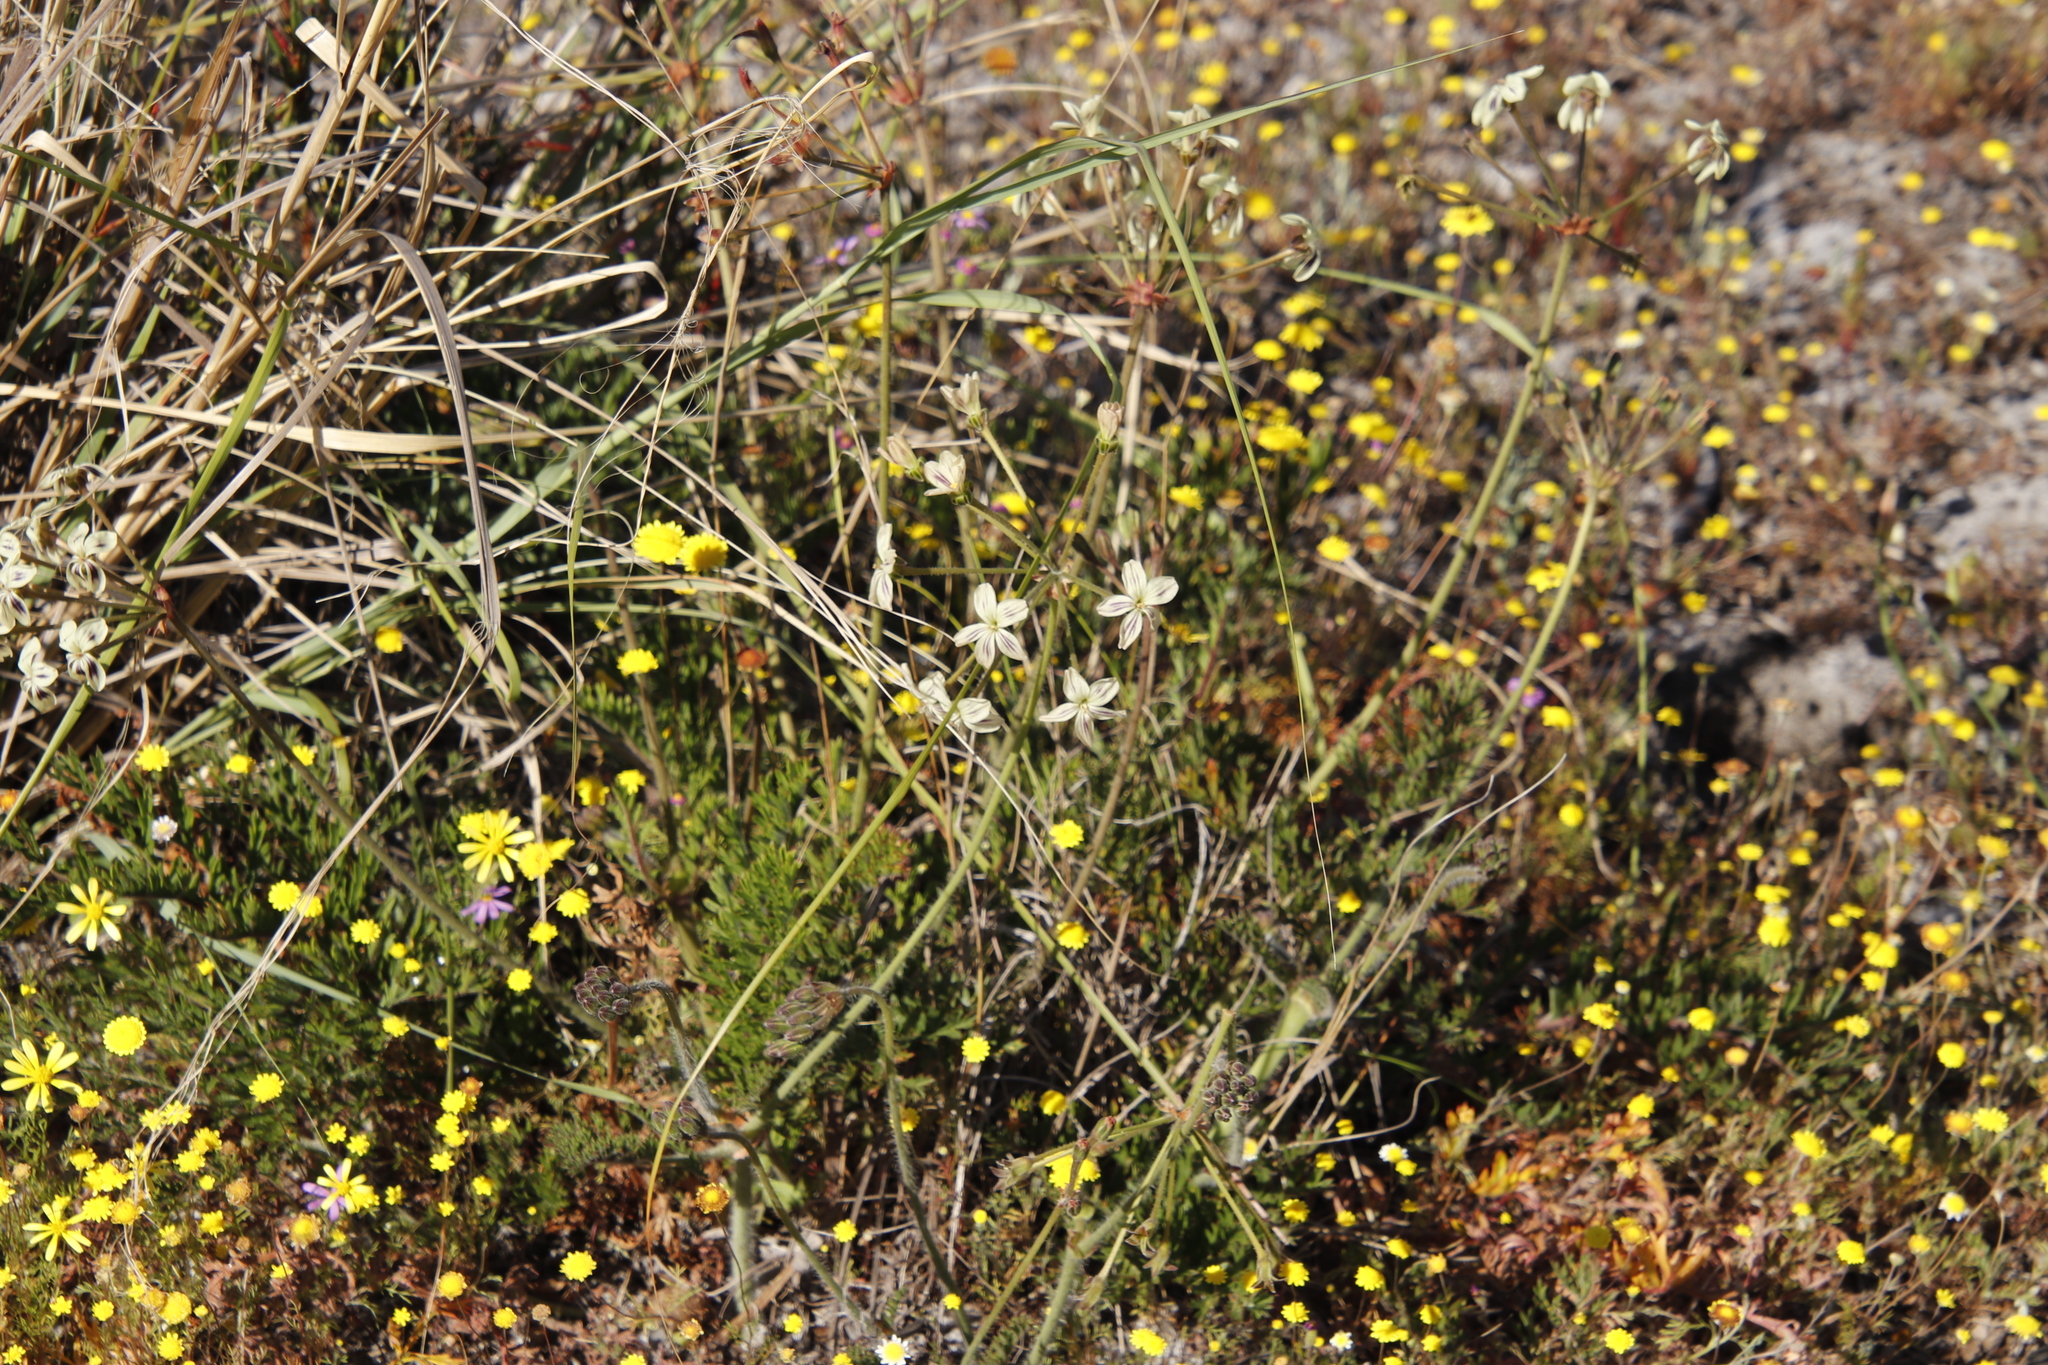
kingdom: Plantae
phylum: Tracheophyta
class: Magnoliopsida
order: Geraniales
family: Geraniaceae
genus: Pelargonium
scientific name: Pelargonium triste
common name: Night-scent pelargonium
